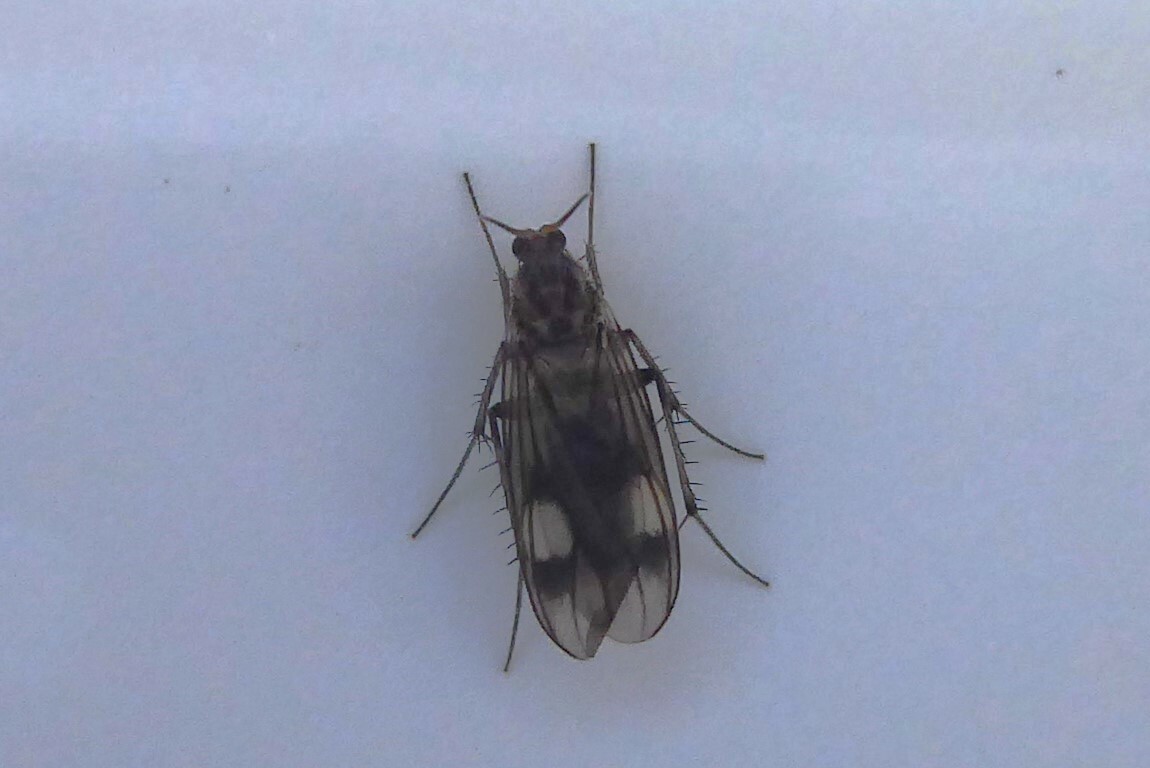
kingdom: Animalia
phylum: Arthropoda
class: Insecta
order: Diptera
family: Mycetophilidae
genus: Anomalomyia
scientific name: Anomalomyia guttata
